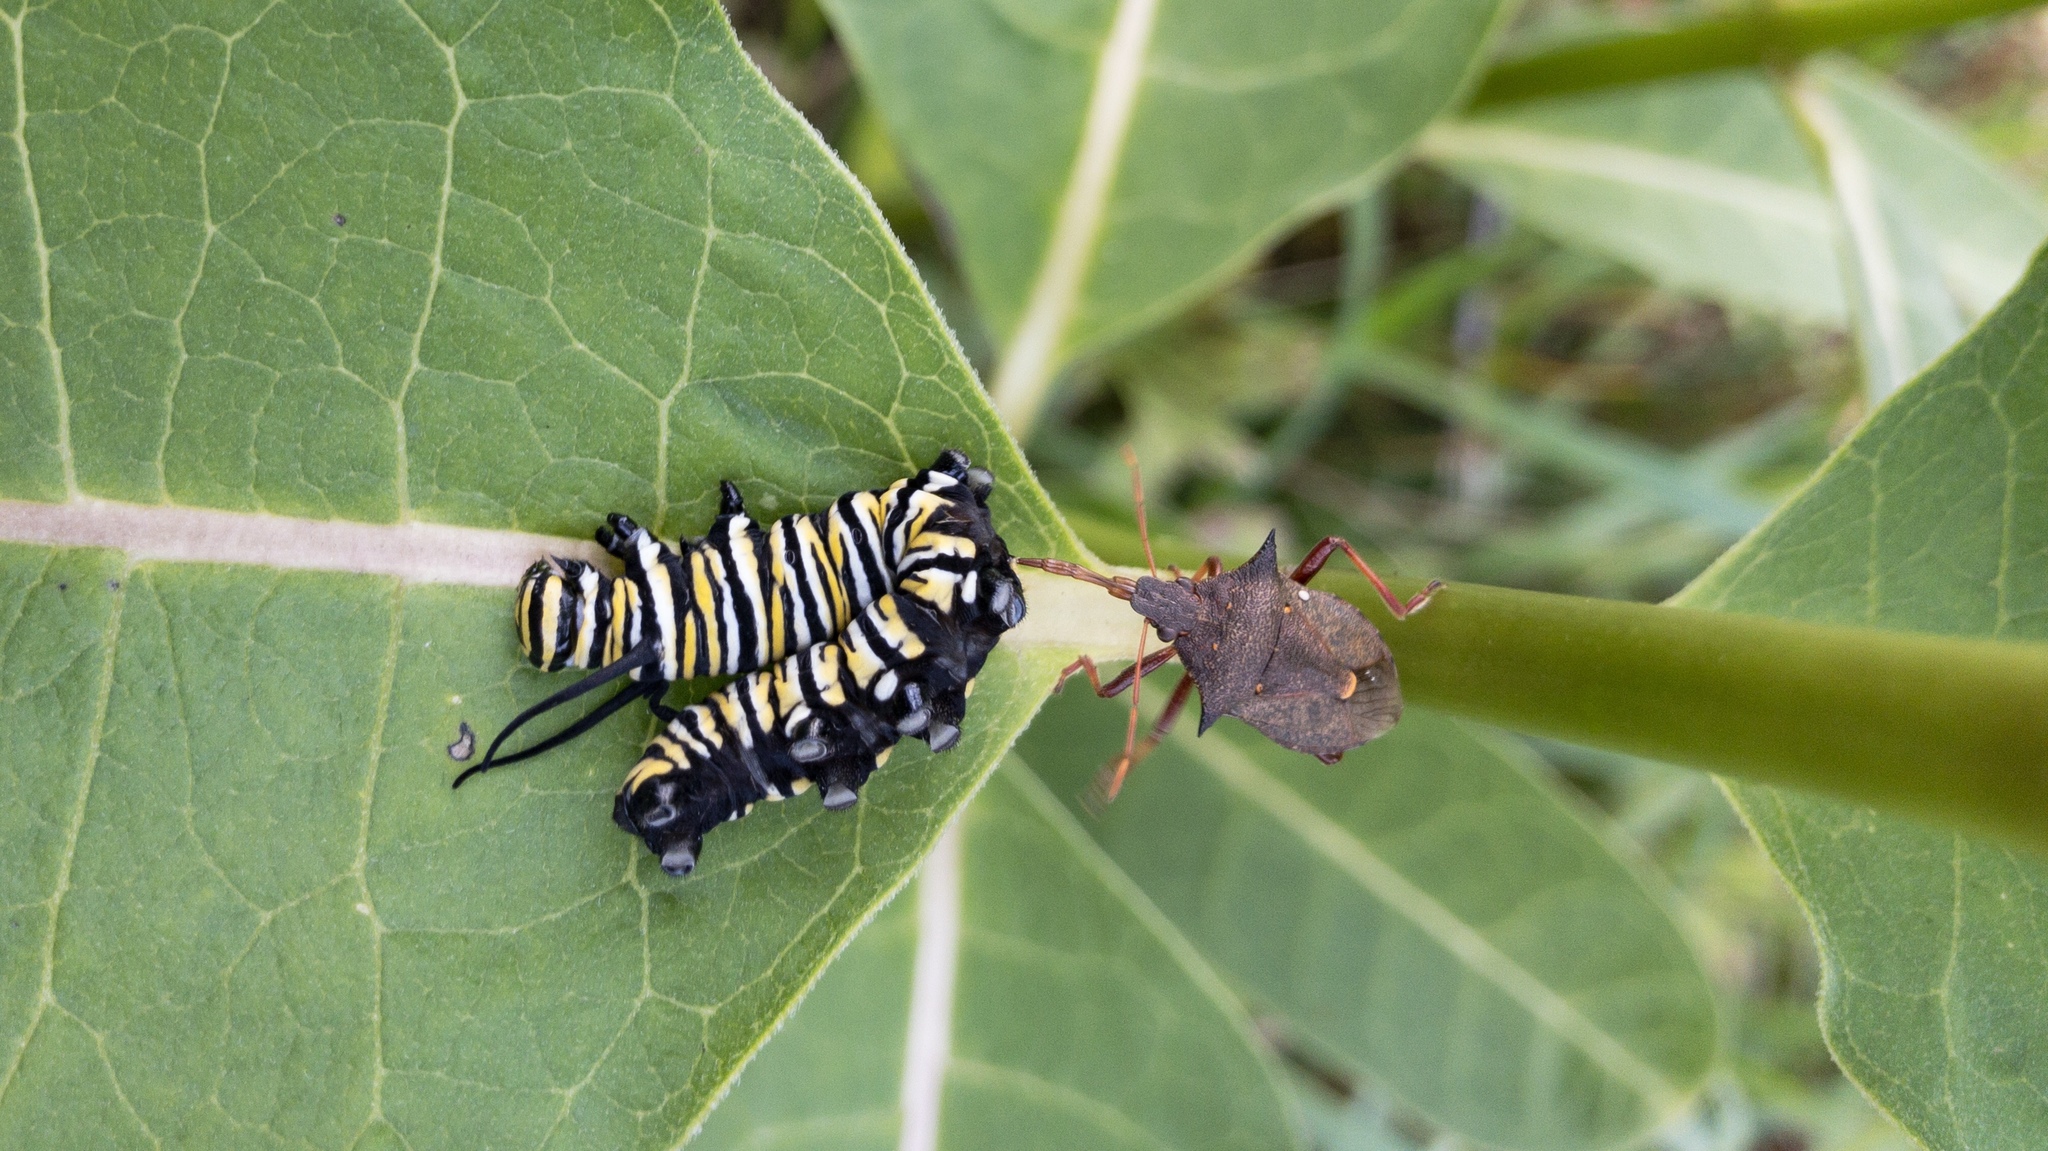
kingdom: Animalia
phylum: Arthropoda
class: Insecta
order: Lepidoptera
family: Nymphalidae
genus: Danaus
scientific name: Danaus plexippus
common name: Monarch
